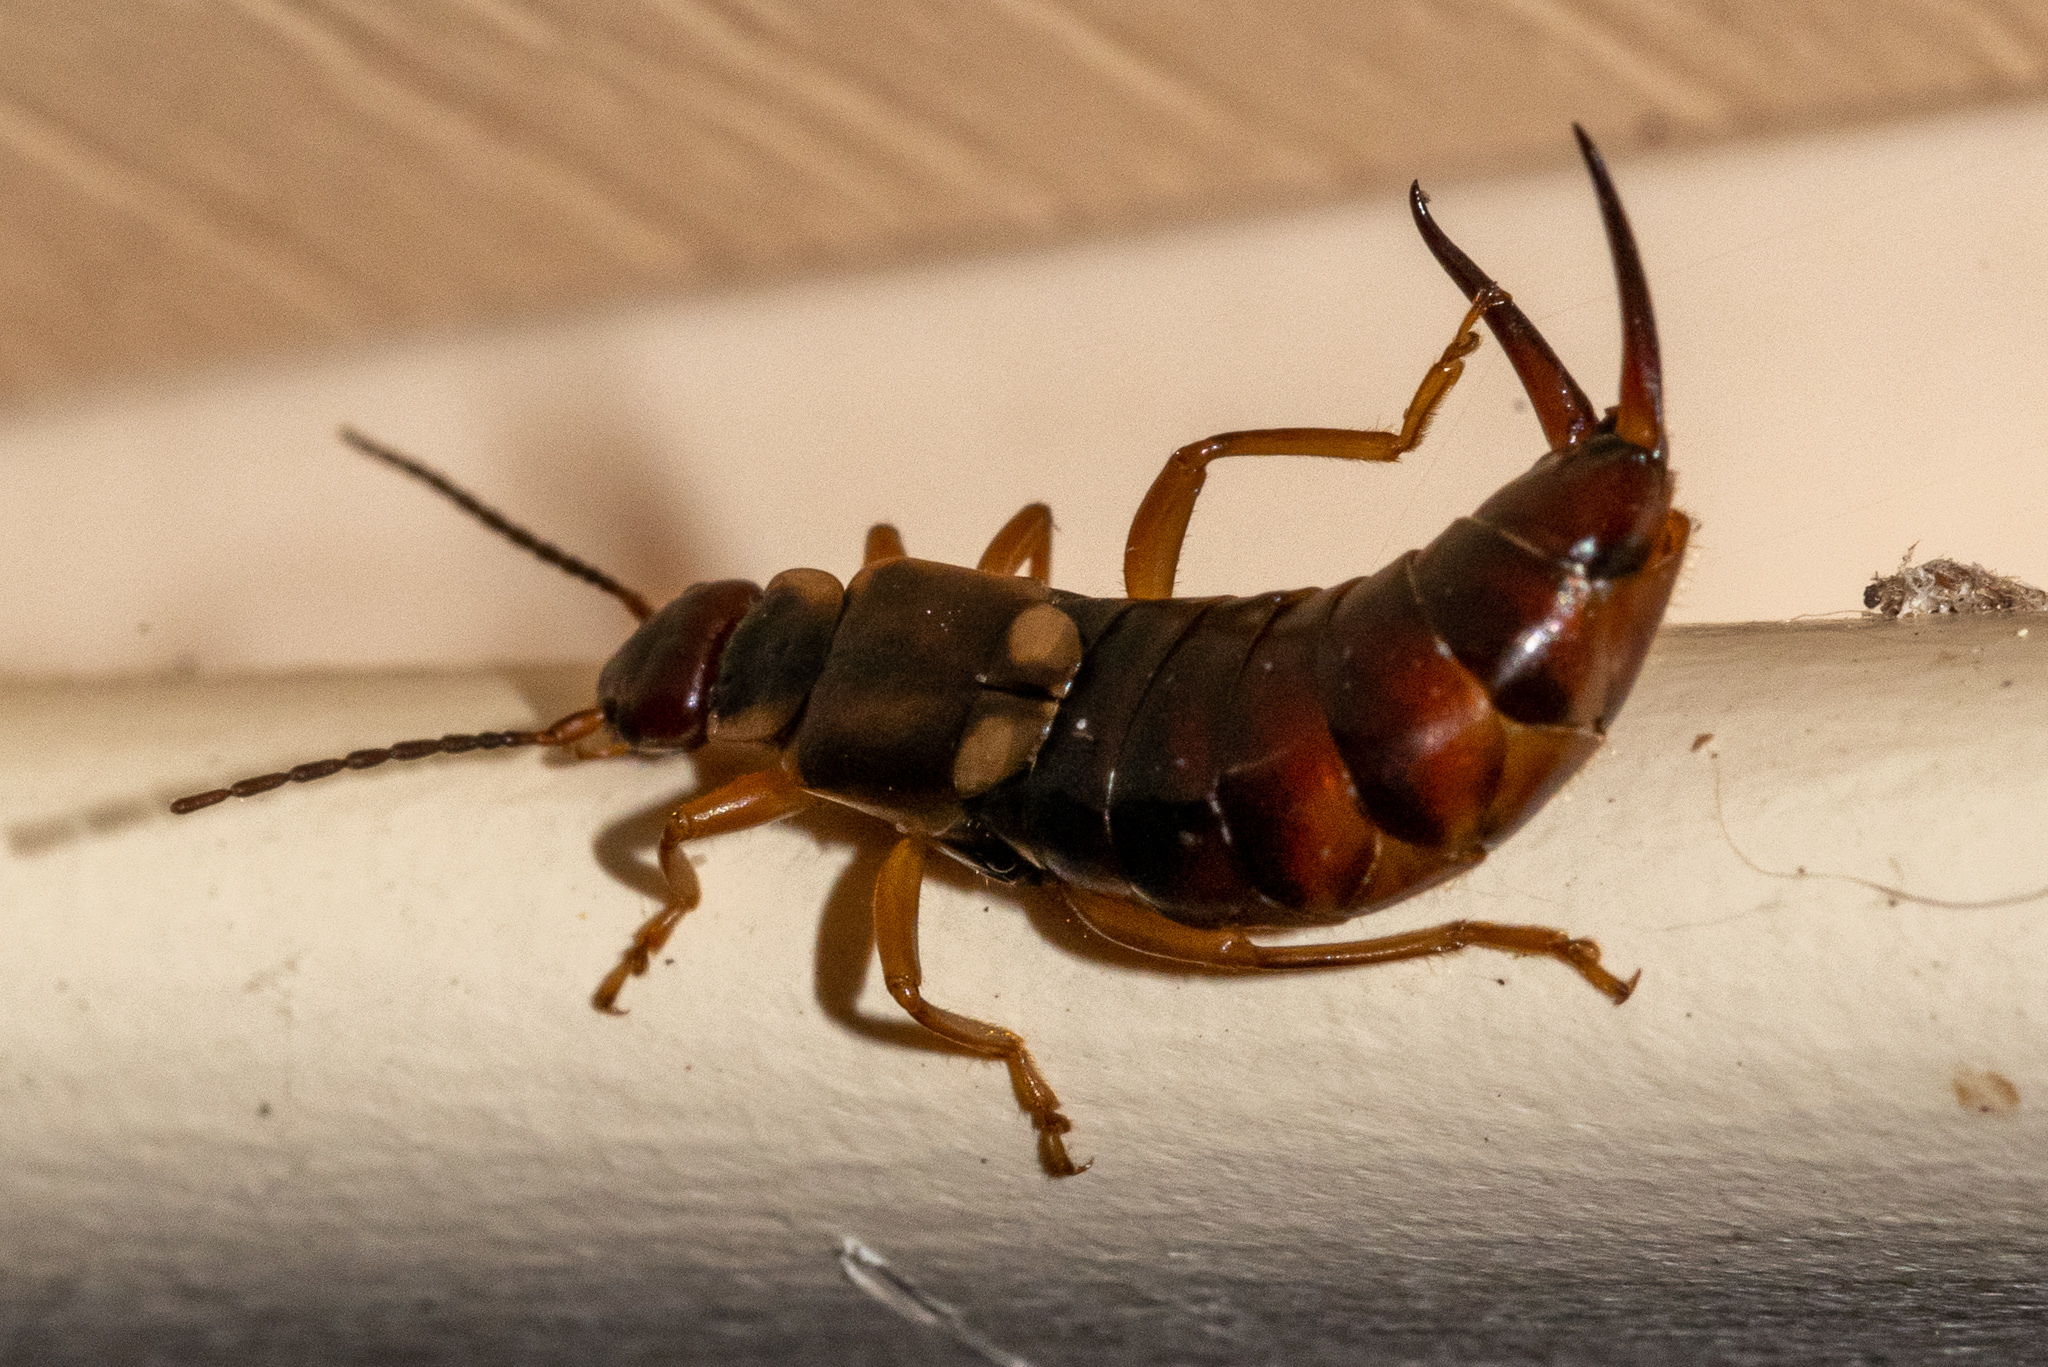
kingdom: Animalia
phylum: Arthropoda
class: Insecta
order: Dermaptera
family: Forficulidae
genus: Forficula
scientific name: Forficula
